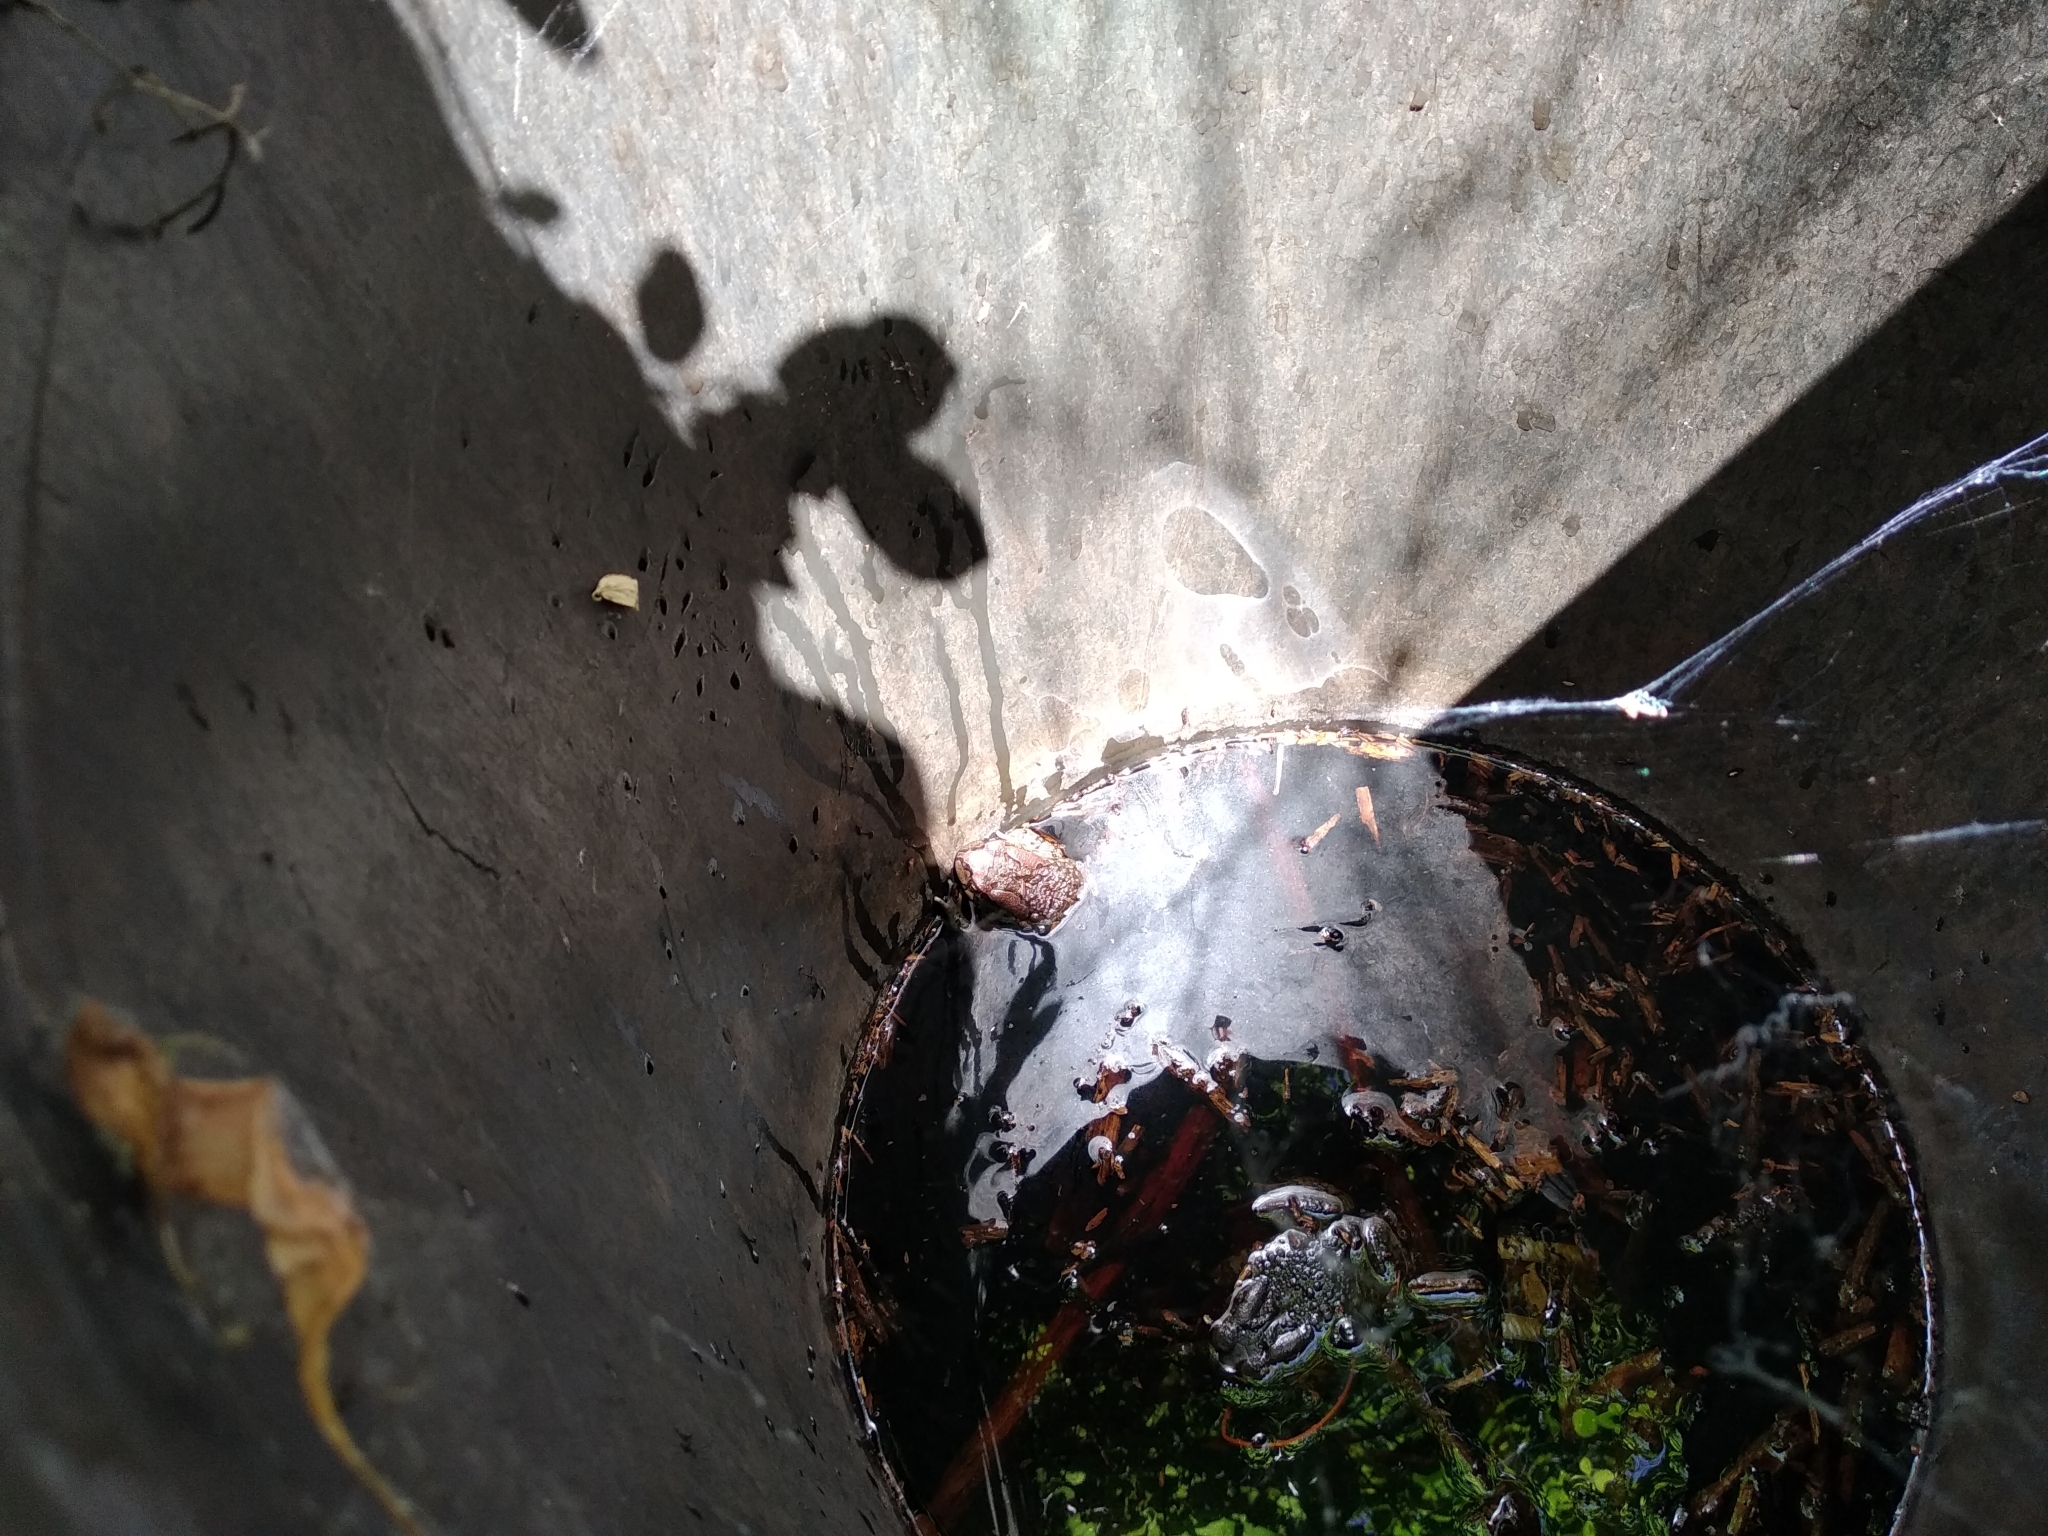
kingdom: Animalia
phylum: Chordata
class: Amphibia
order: Anura
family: Bufonidae
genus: Sclerophrys
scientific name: Sclerophrys capensis
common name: Ranger’s toad
